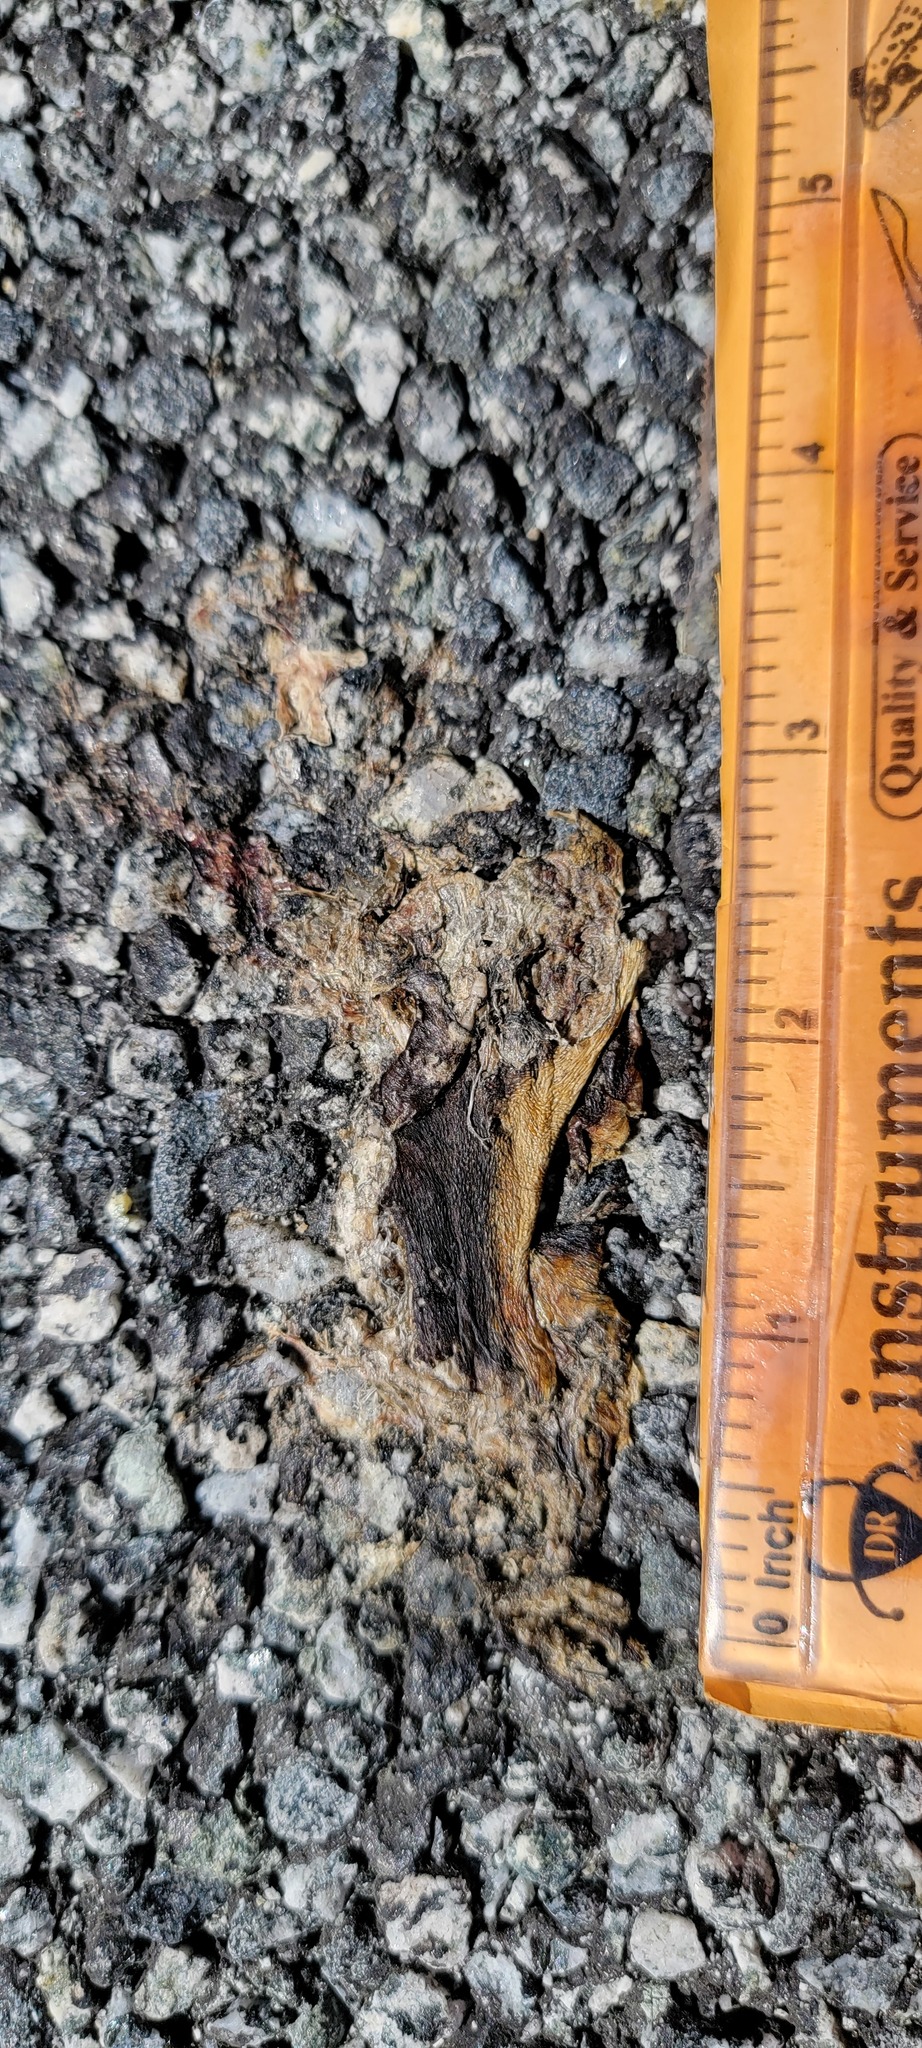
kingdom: Animalia
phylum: Chordata
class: Amphibia
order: Caudata
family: Salamandridae
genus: Taricha
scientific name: Taricha
